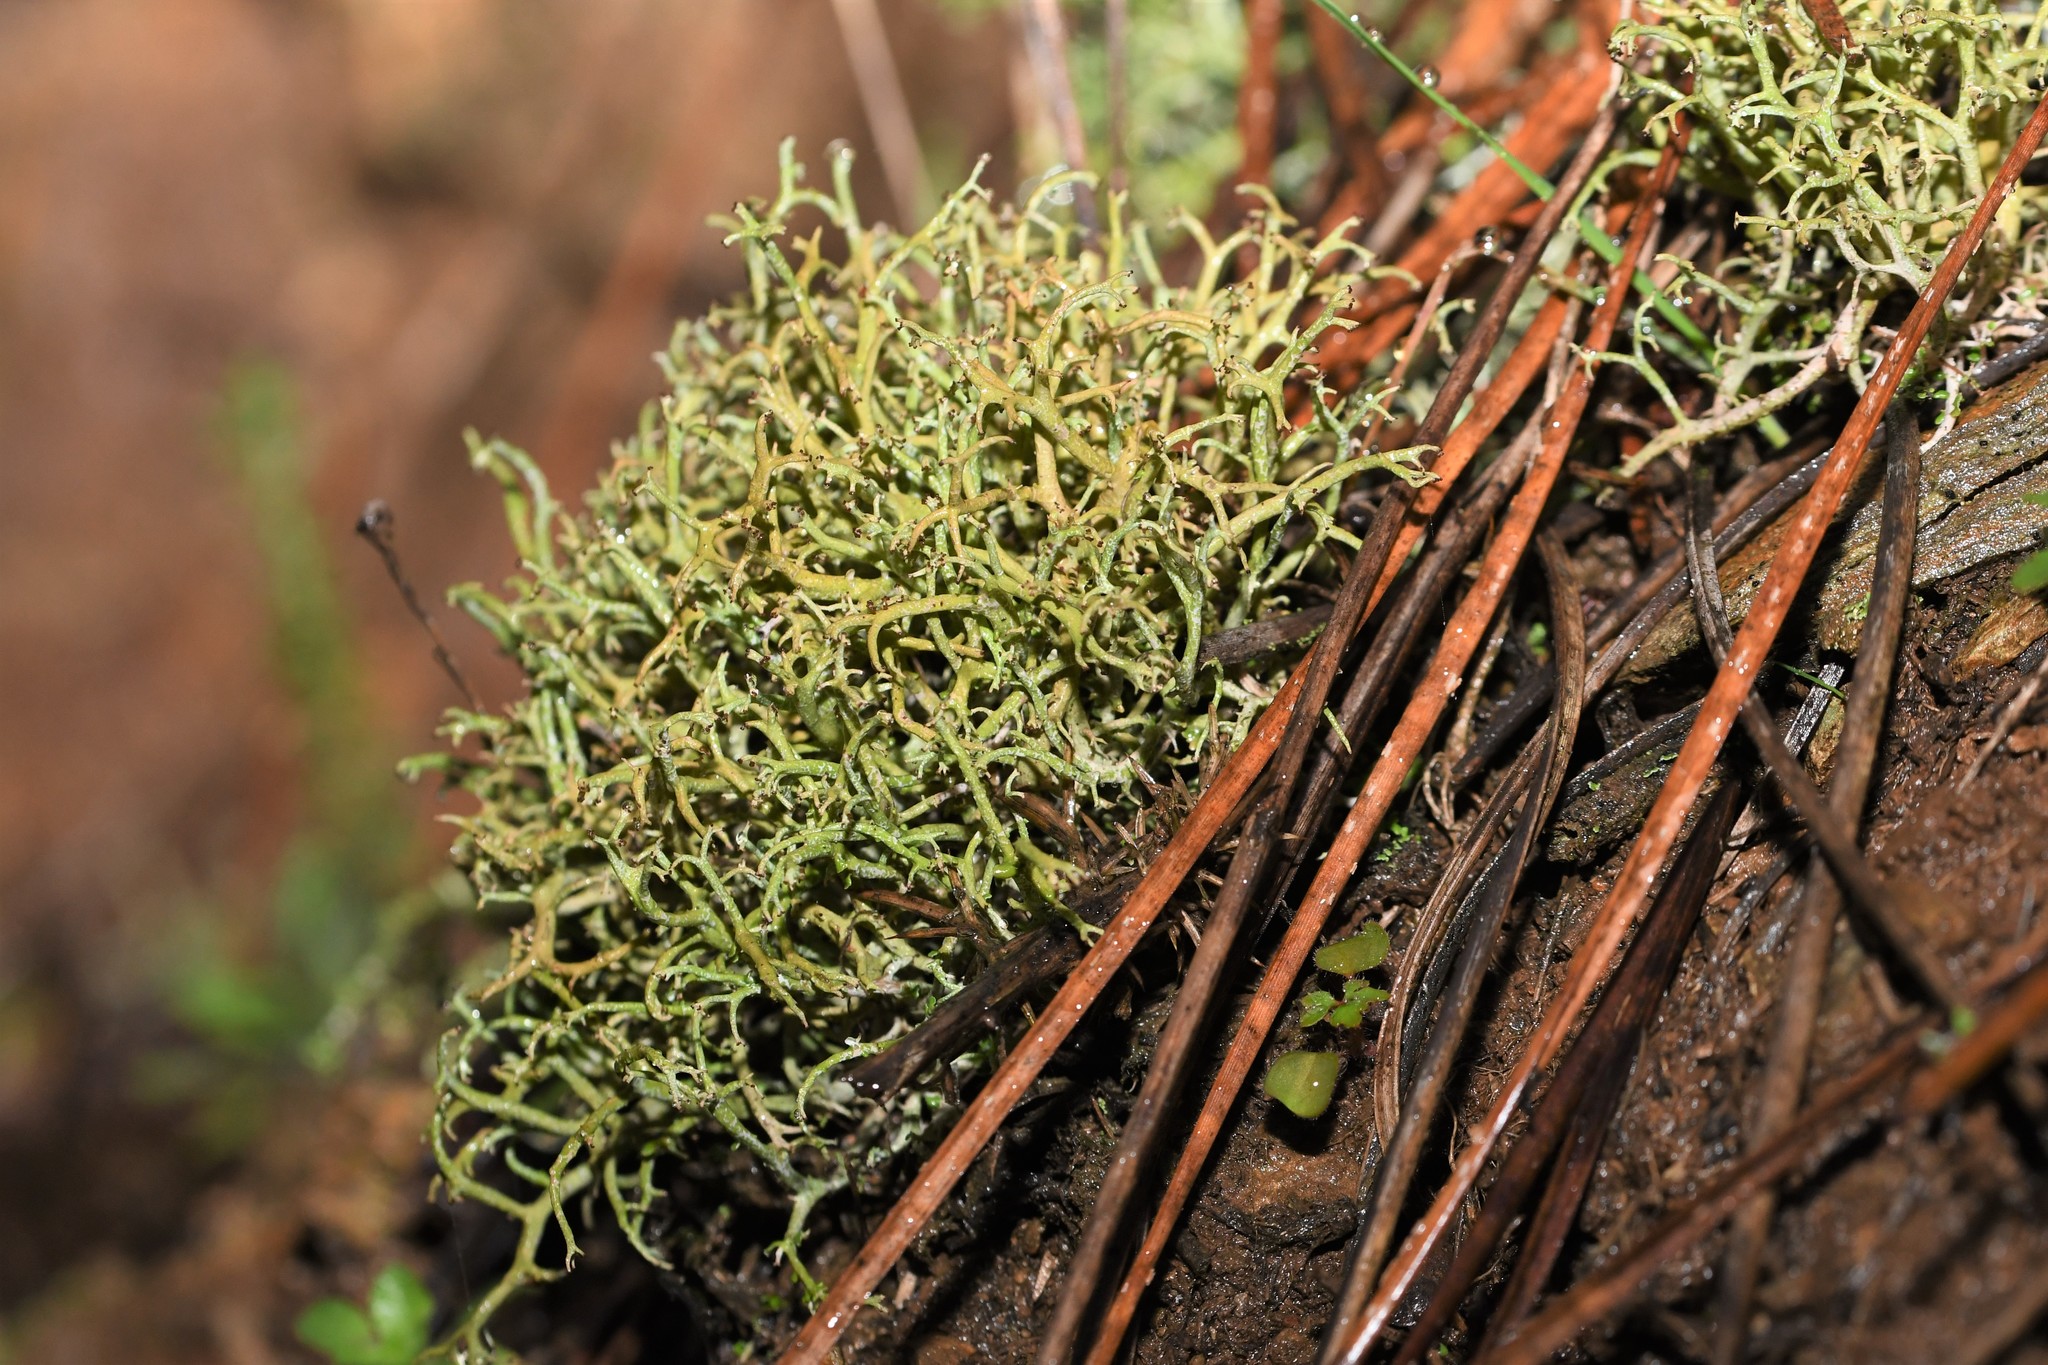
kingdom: Fungi
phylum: Ascomycota
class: Lecanoromycetes
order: Lecanorales
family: Cladoniaceae
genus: Cladonia
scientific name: Cladonia furcata
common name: Many-forked cladonia
